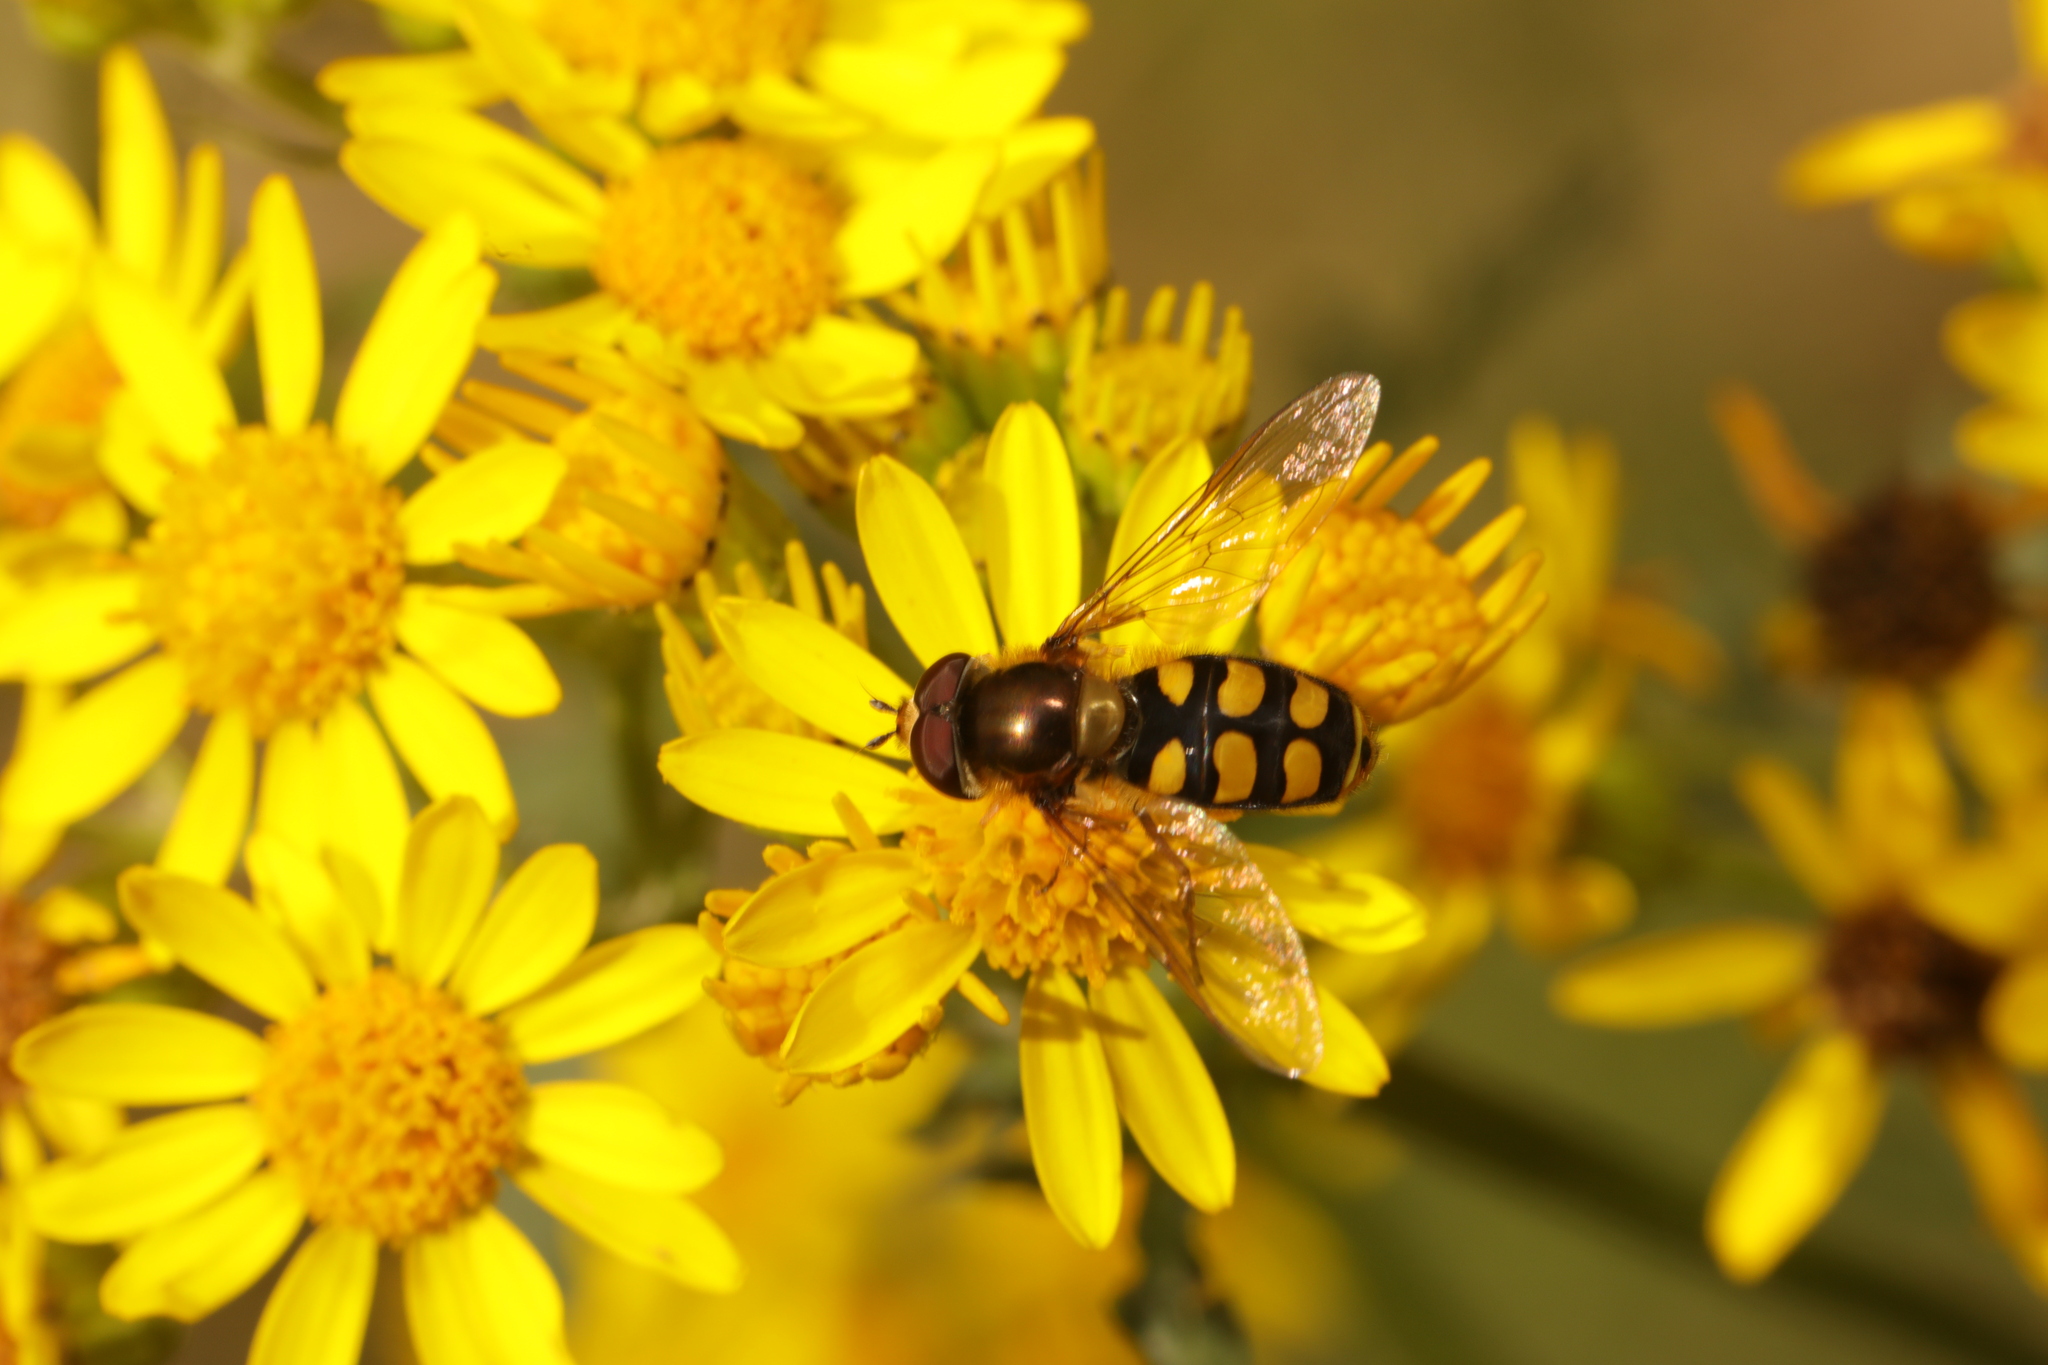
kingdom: Animalia
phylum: Arthropoda
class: Insecta
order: Diptera
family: Syrphidae
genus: Eupeodes
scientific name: Eupeodes
